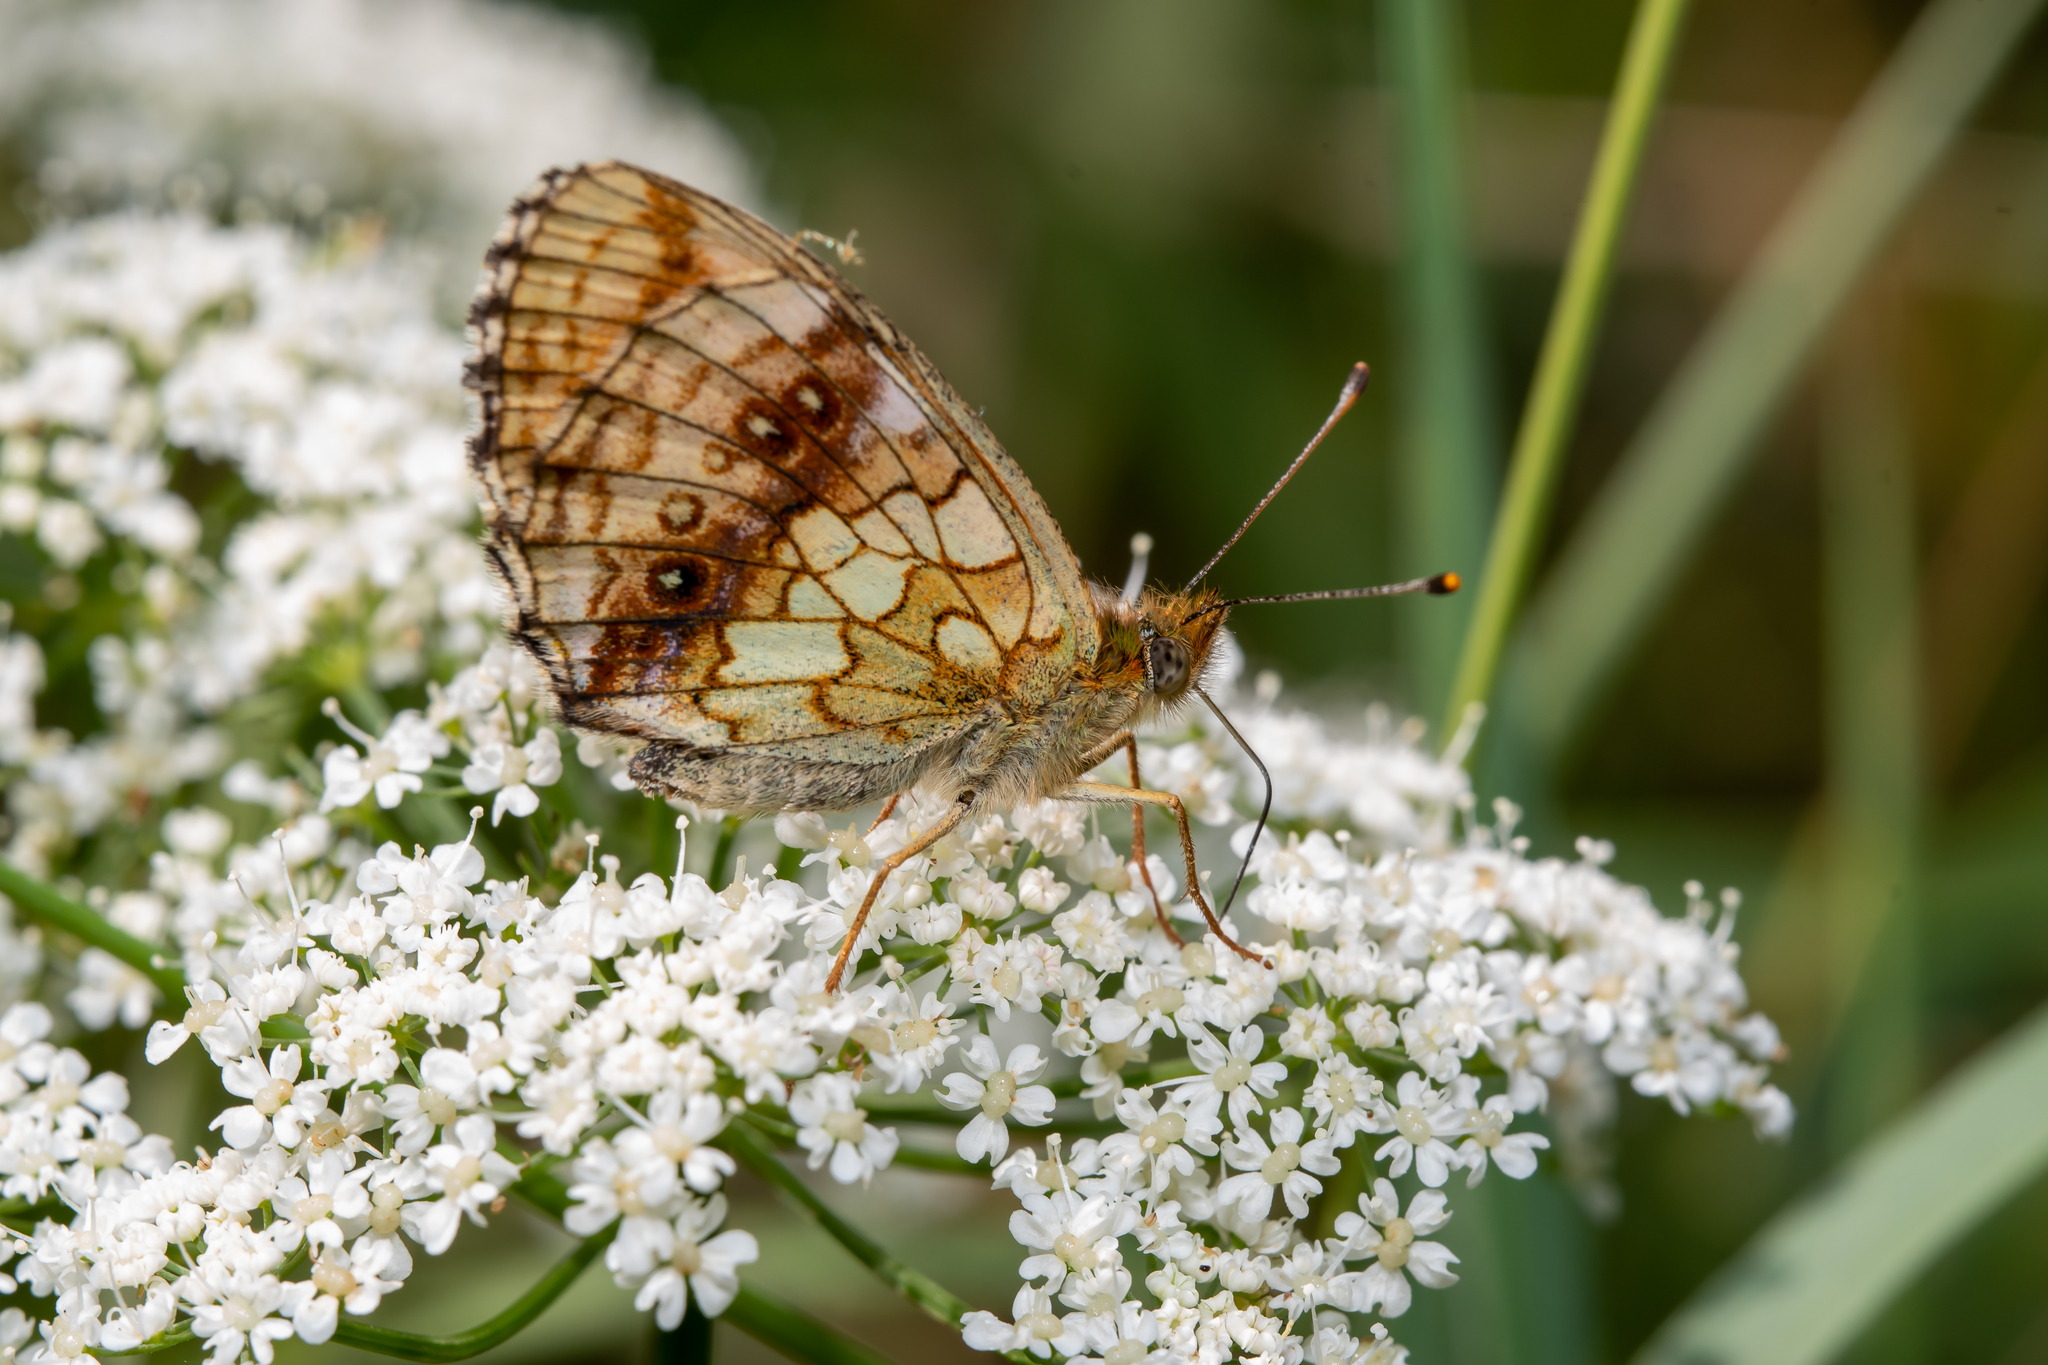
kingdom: Animalia
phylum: Arthropoda
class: Insecta
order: Lepidoptera
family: Nymphalidae
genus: Brenthis
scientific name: Brenthis ino
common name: Lesser marbled fritillary
